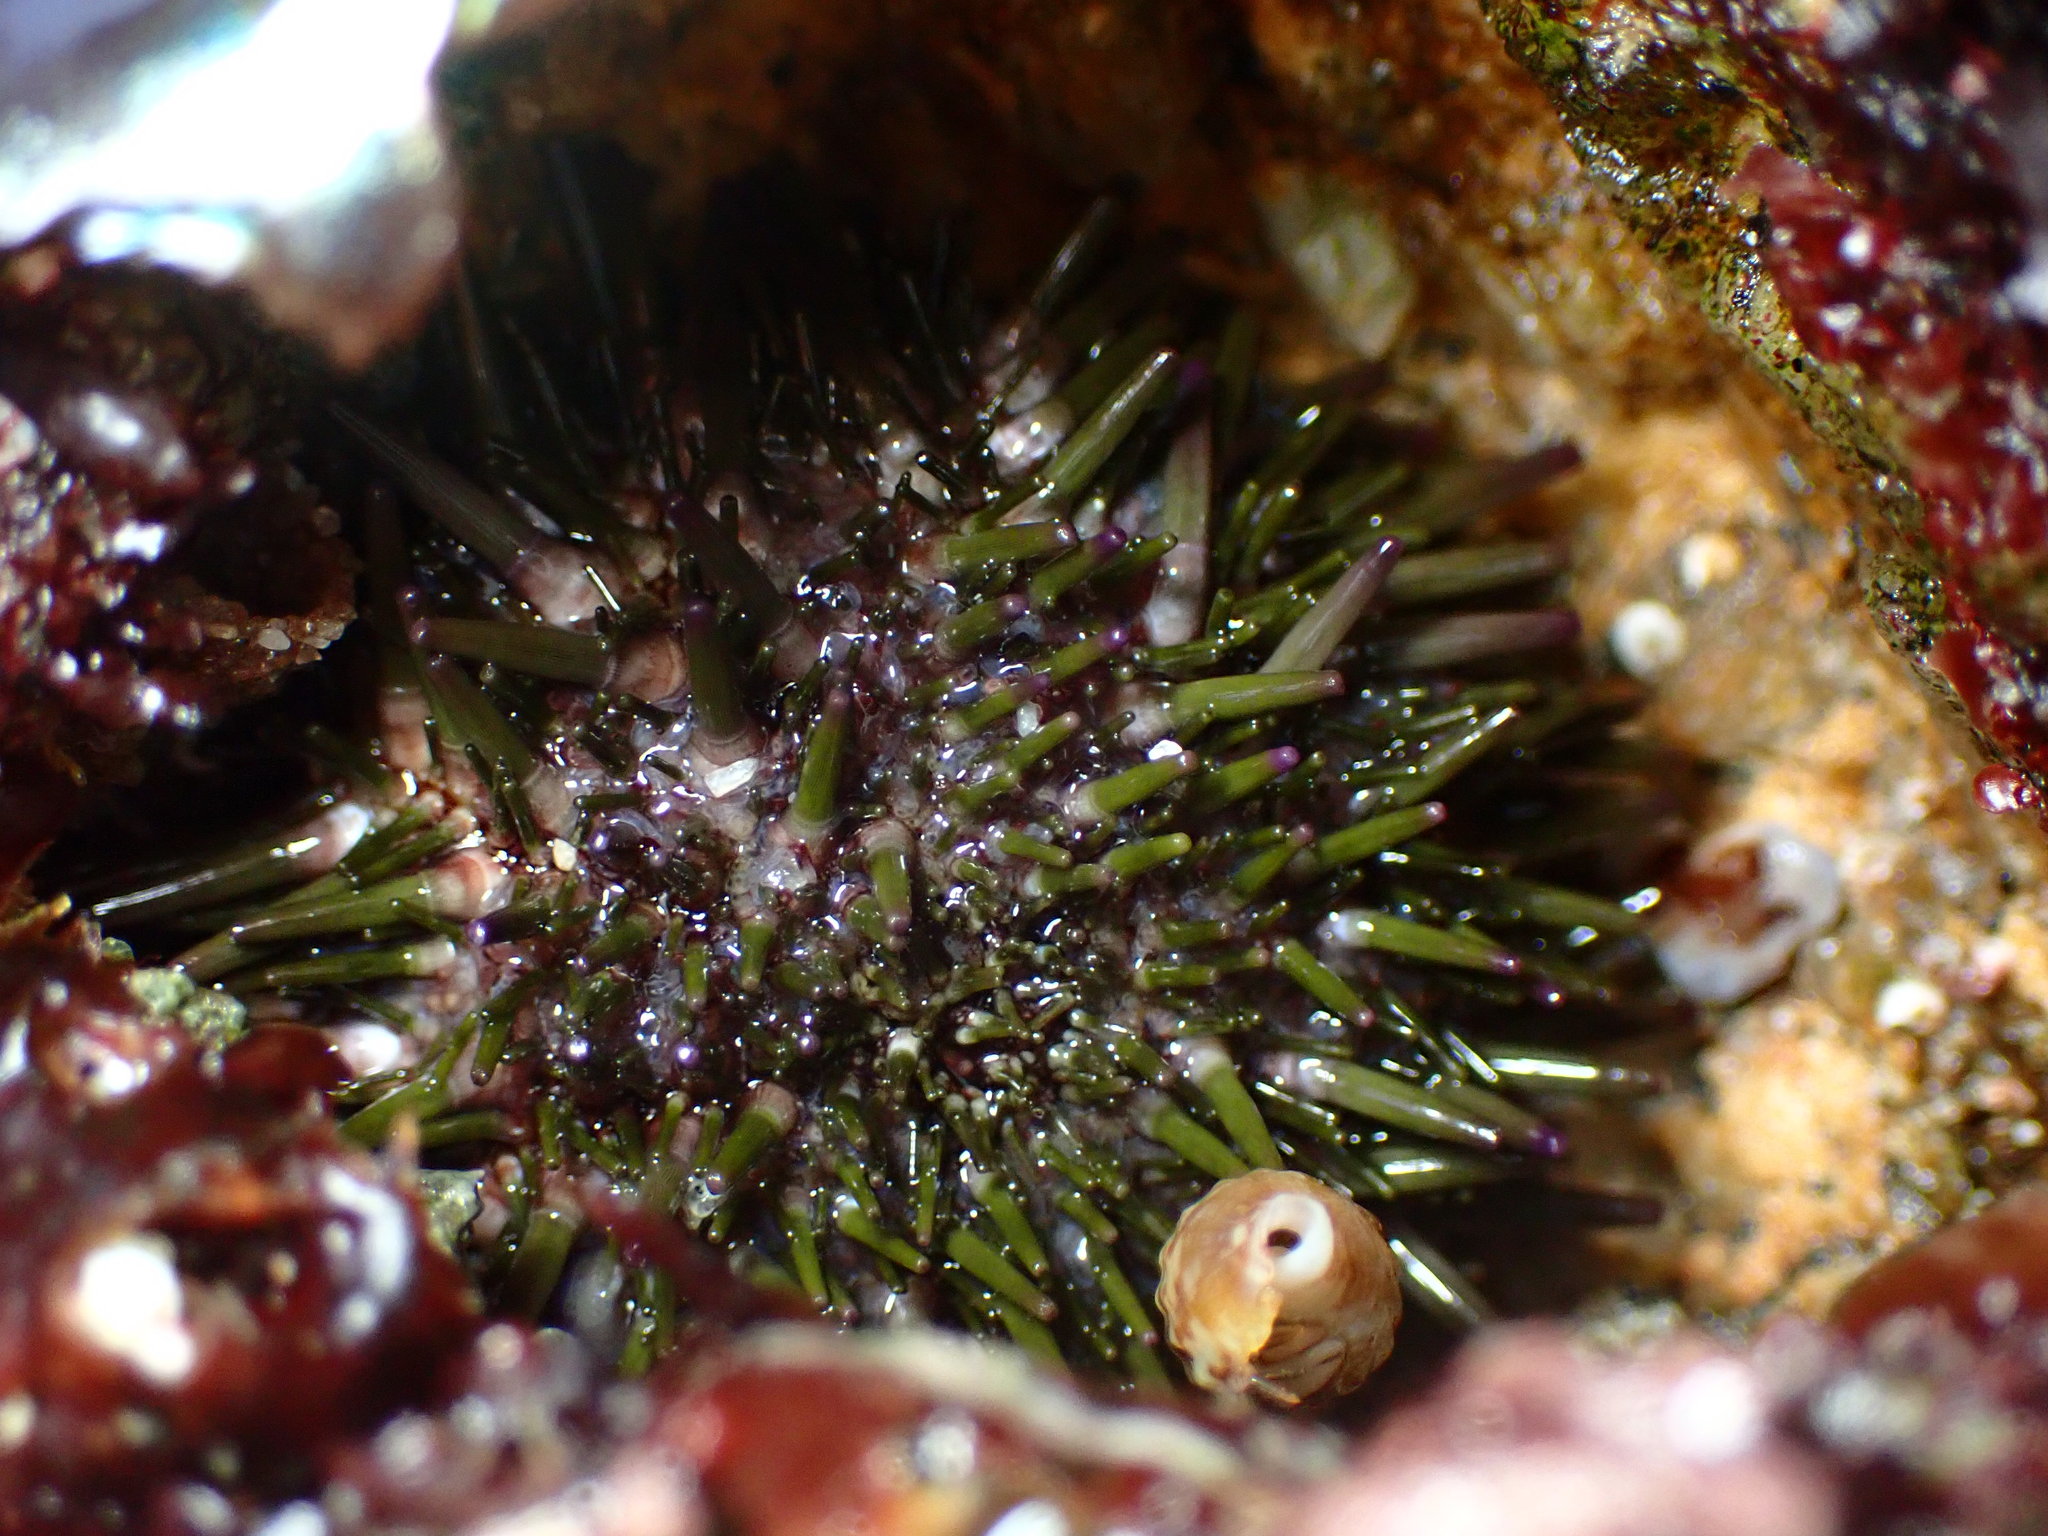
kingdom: Animalia
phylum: Echinodermata
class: Echinoidea
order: Camarodonta
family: Strongylocentrotidae
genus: Strongylocentrotus
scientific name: Strongylocentrotus purpuratus
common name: Purple sea urchin
